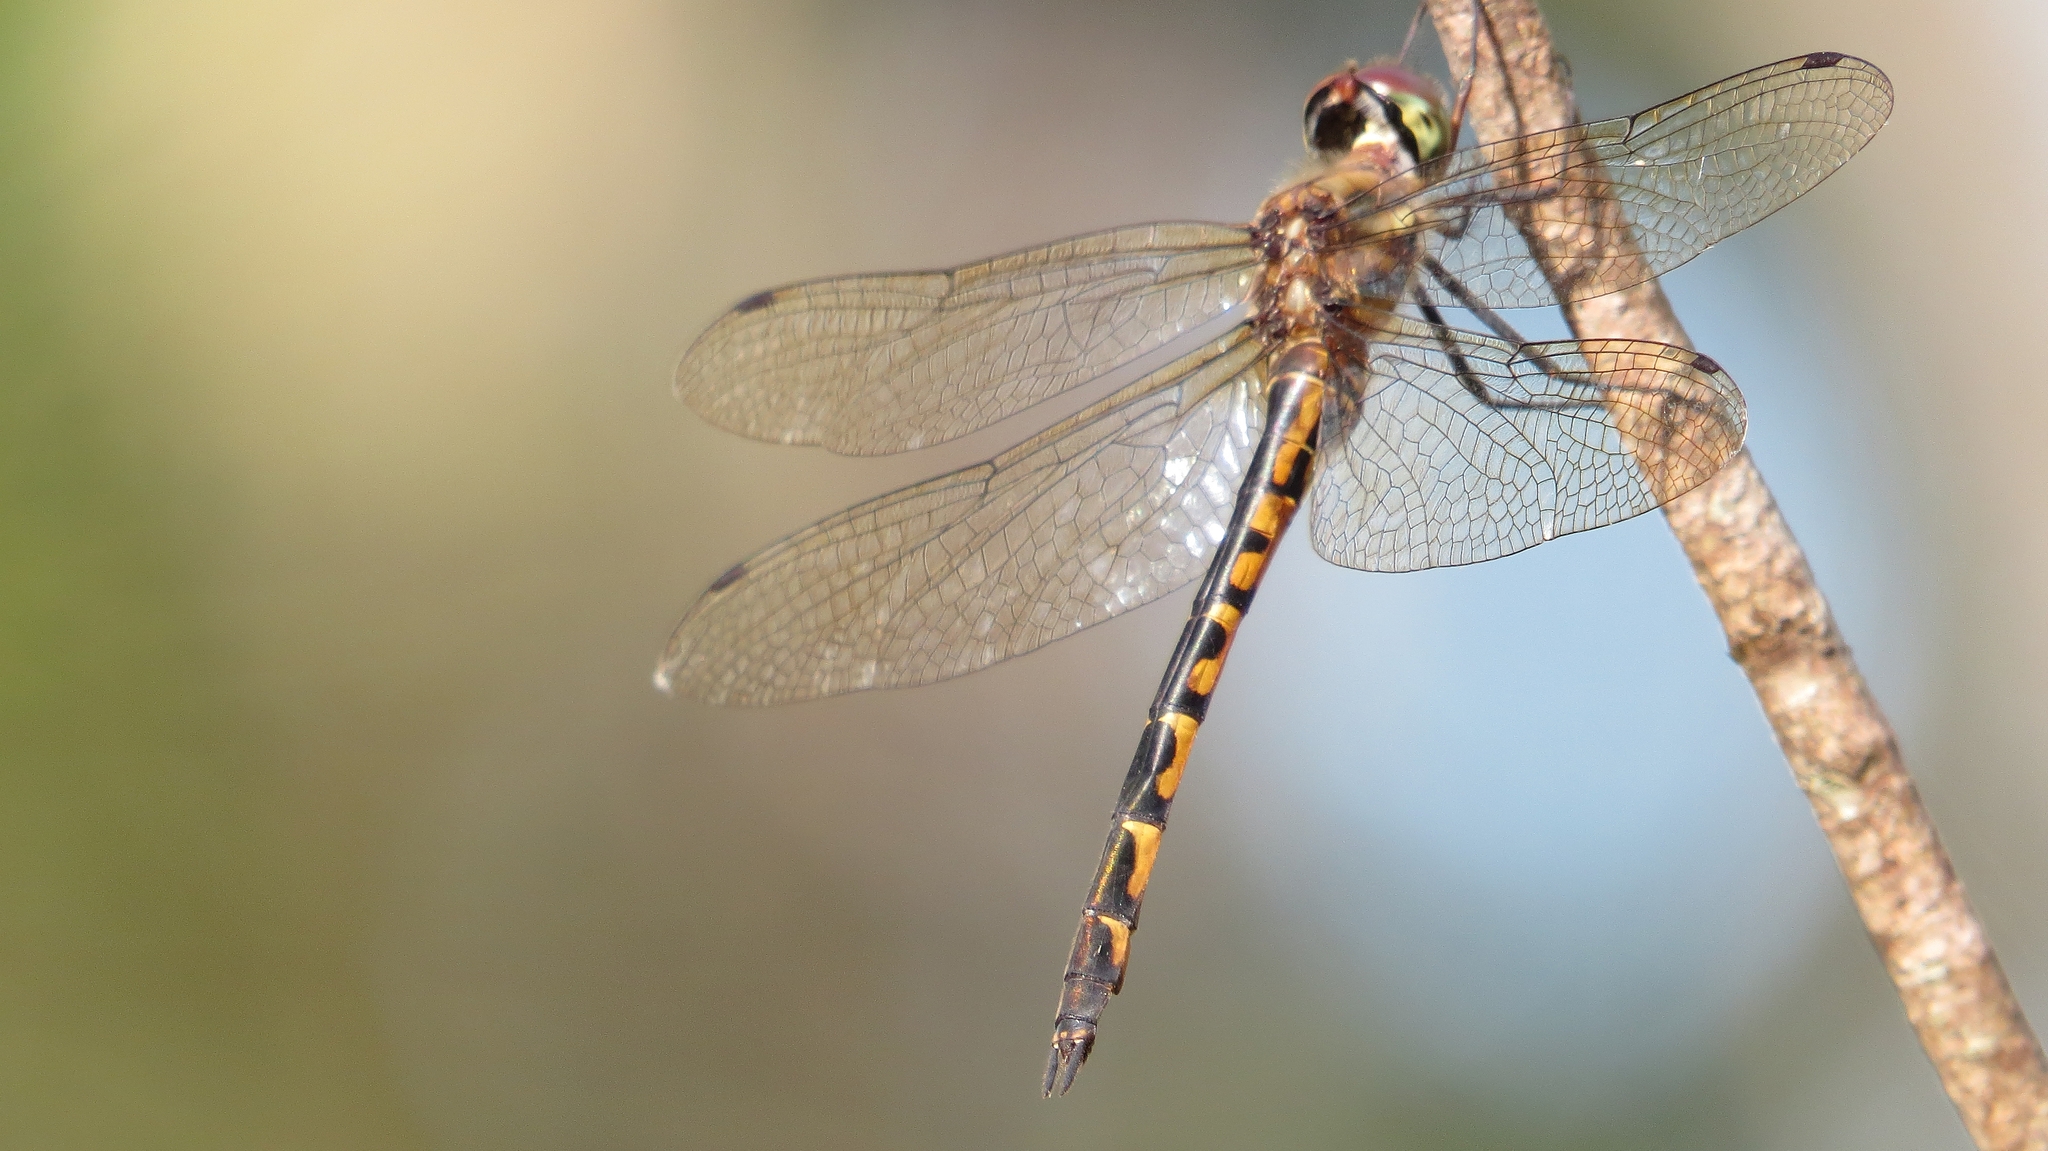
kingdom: Animalia
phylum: Arthropoda
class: Insecta
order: Odonata
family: Corduliidae
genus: Hemicordulia
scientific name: Hemicordulia australiae
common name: Sentry dragonfly
